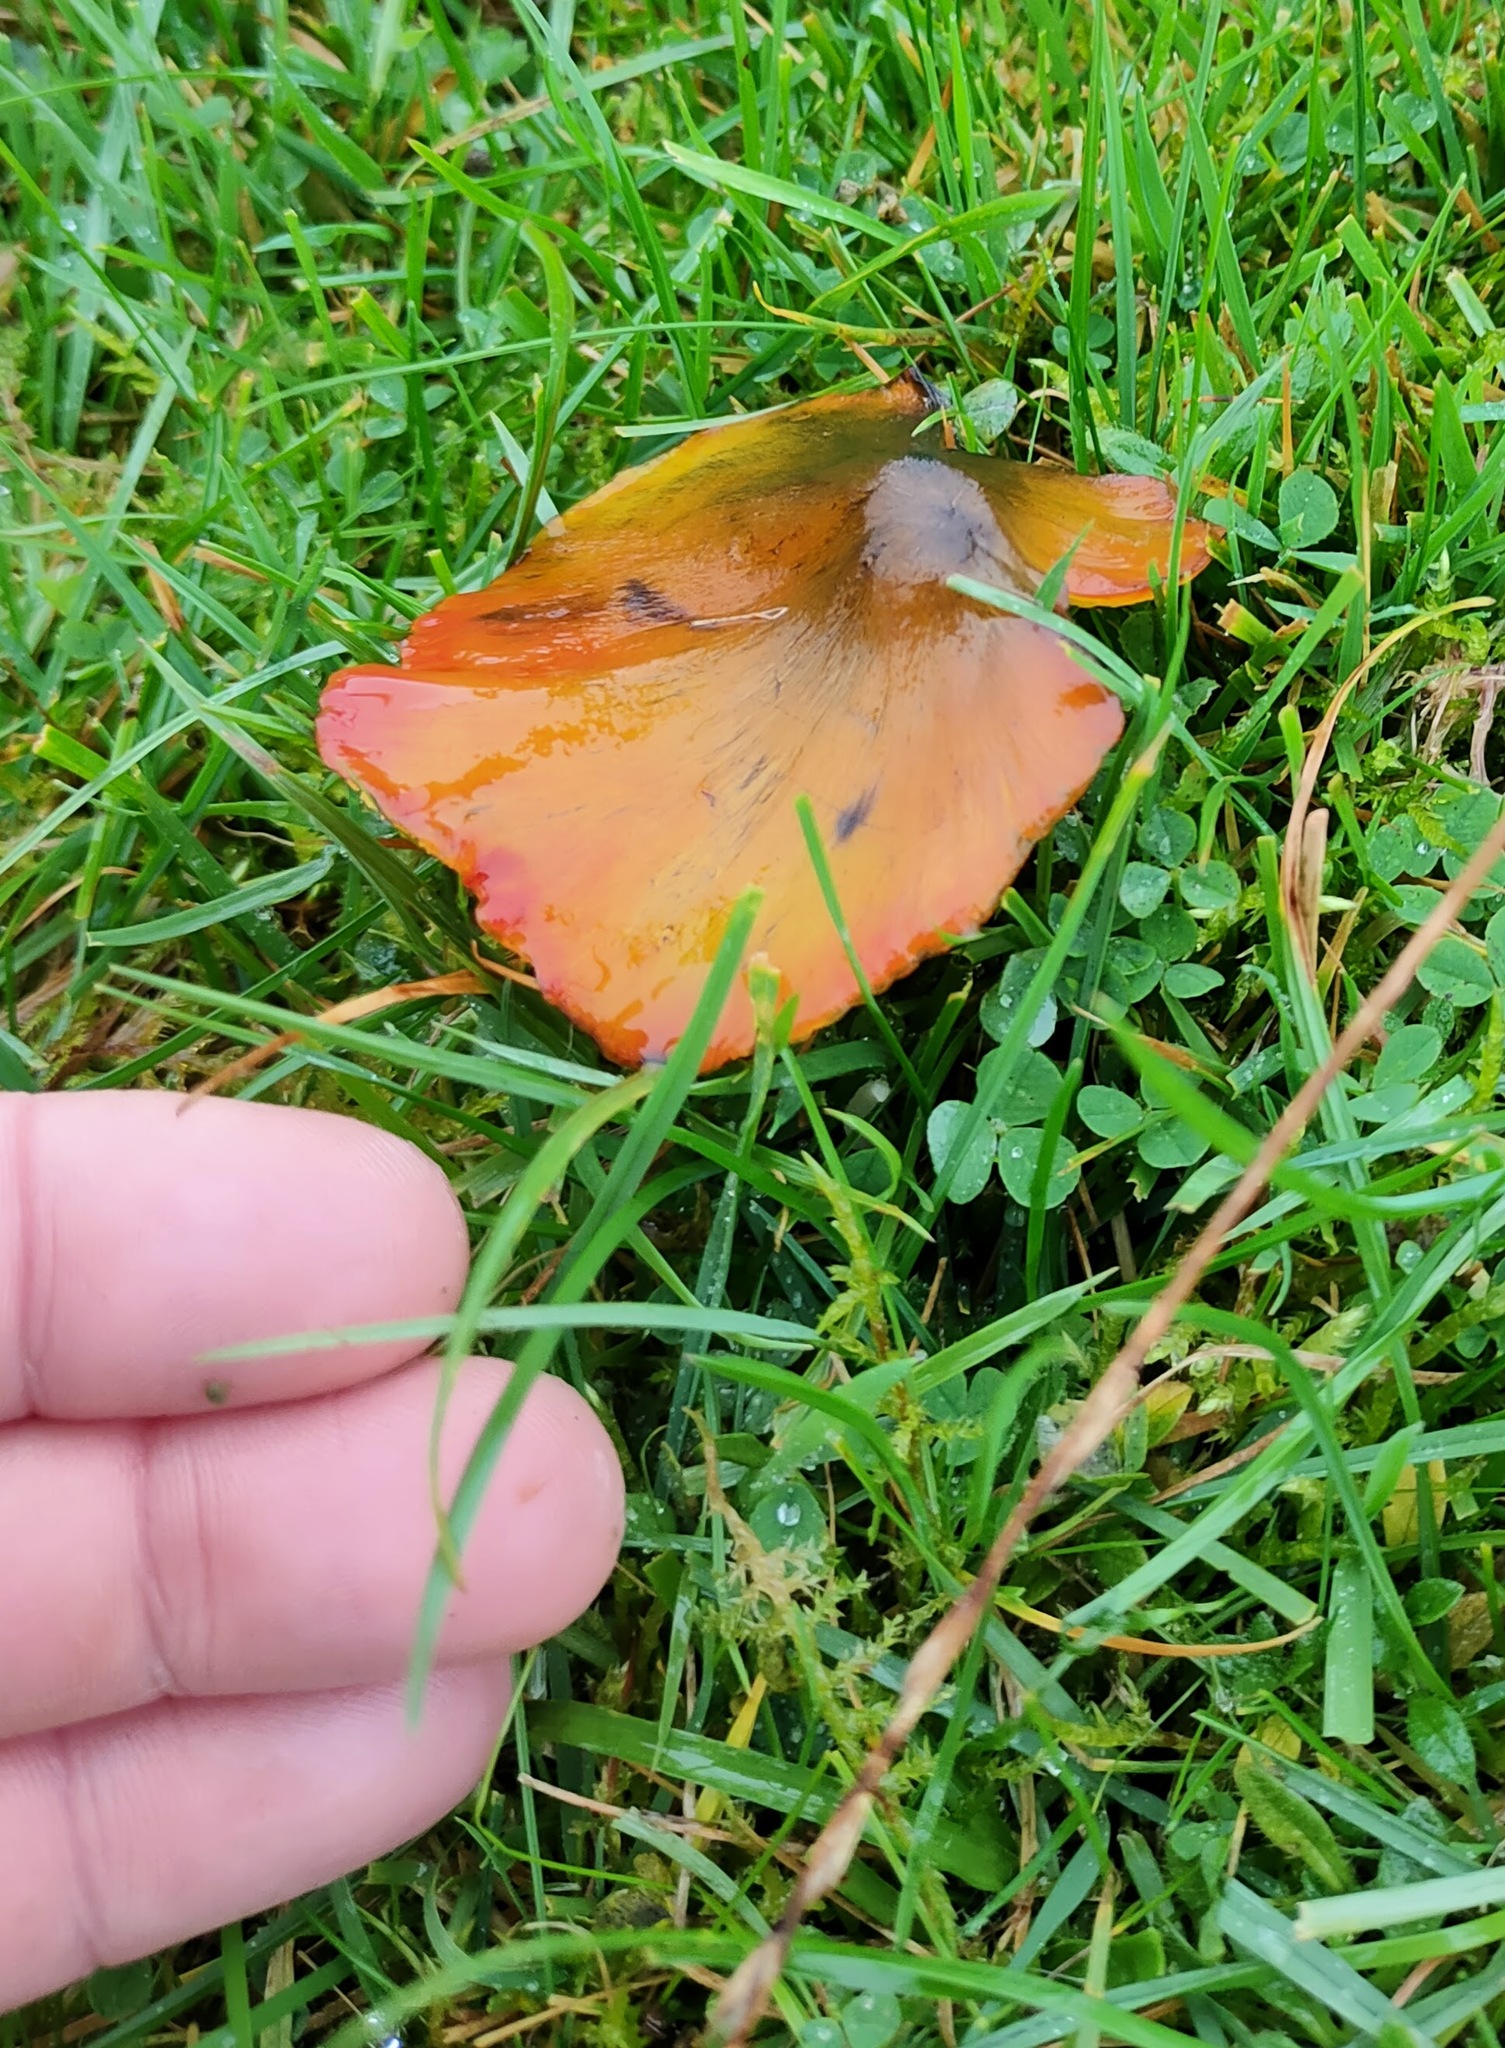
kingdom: Fungi
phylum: Basidiomycota
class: Agaricomycetes
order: Agaricales
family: Hygrophoraceae
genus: Hygrocybe
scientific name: Hygrocybe conica
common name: Blackening wax-cap
